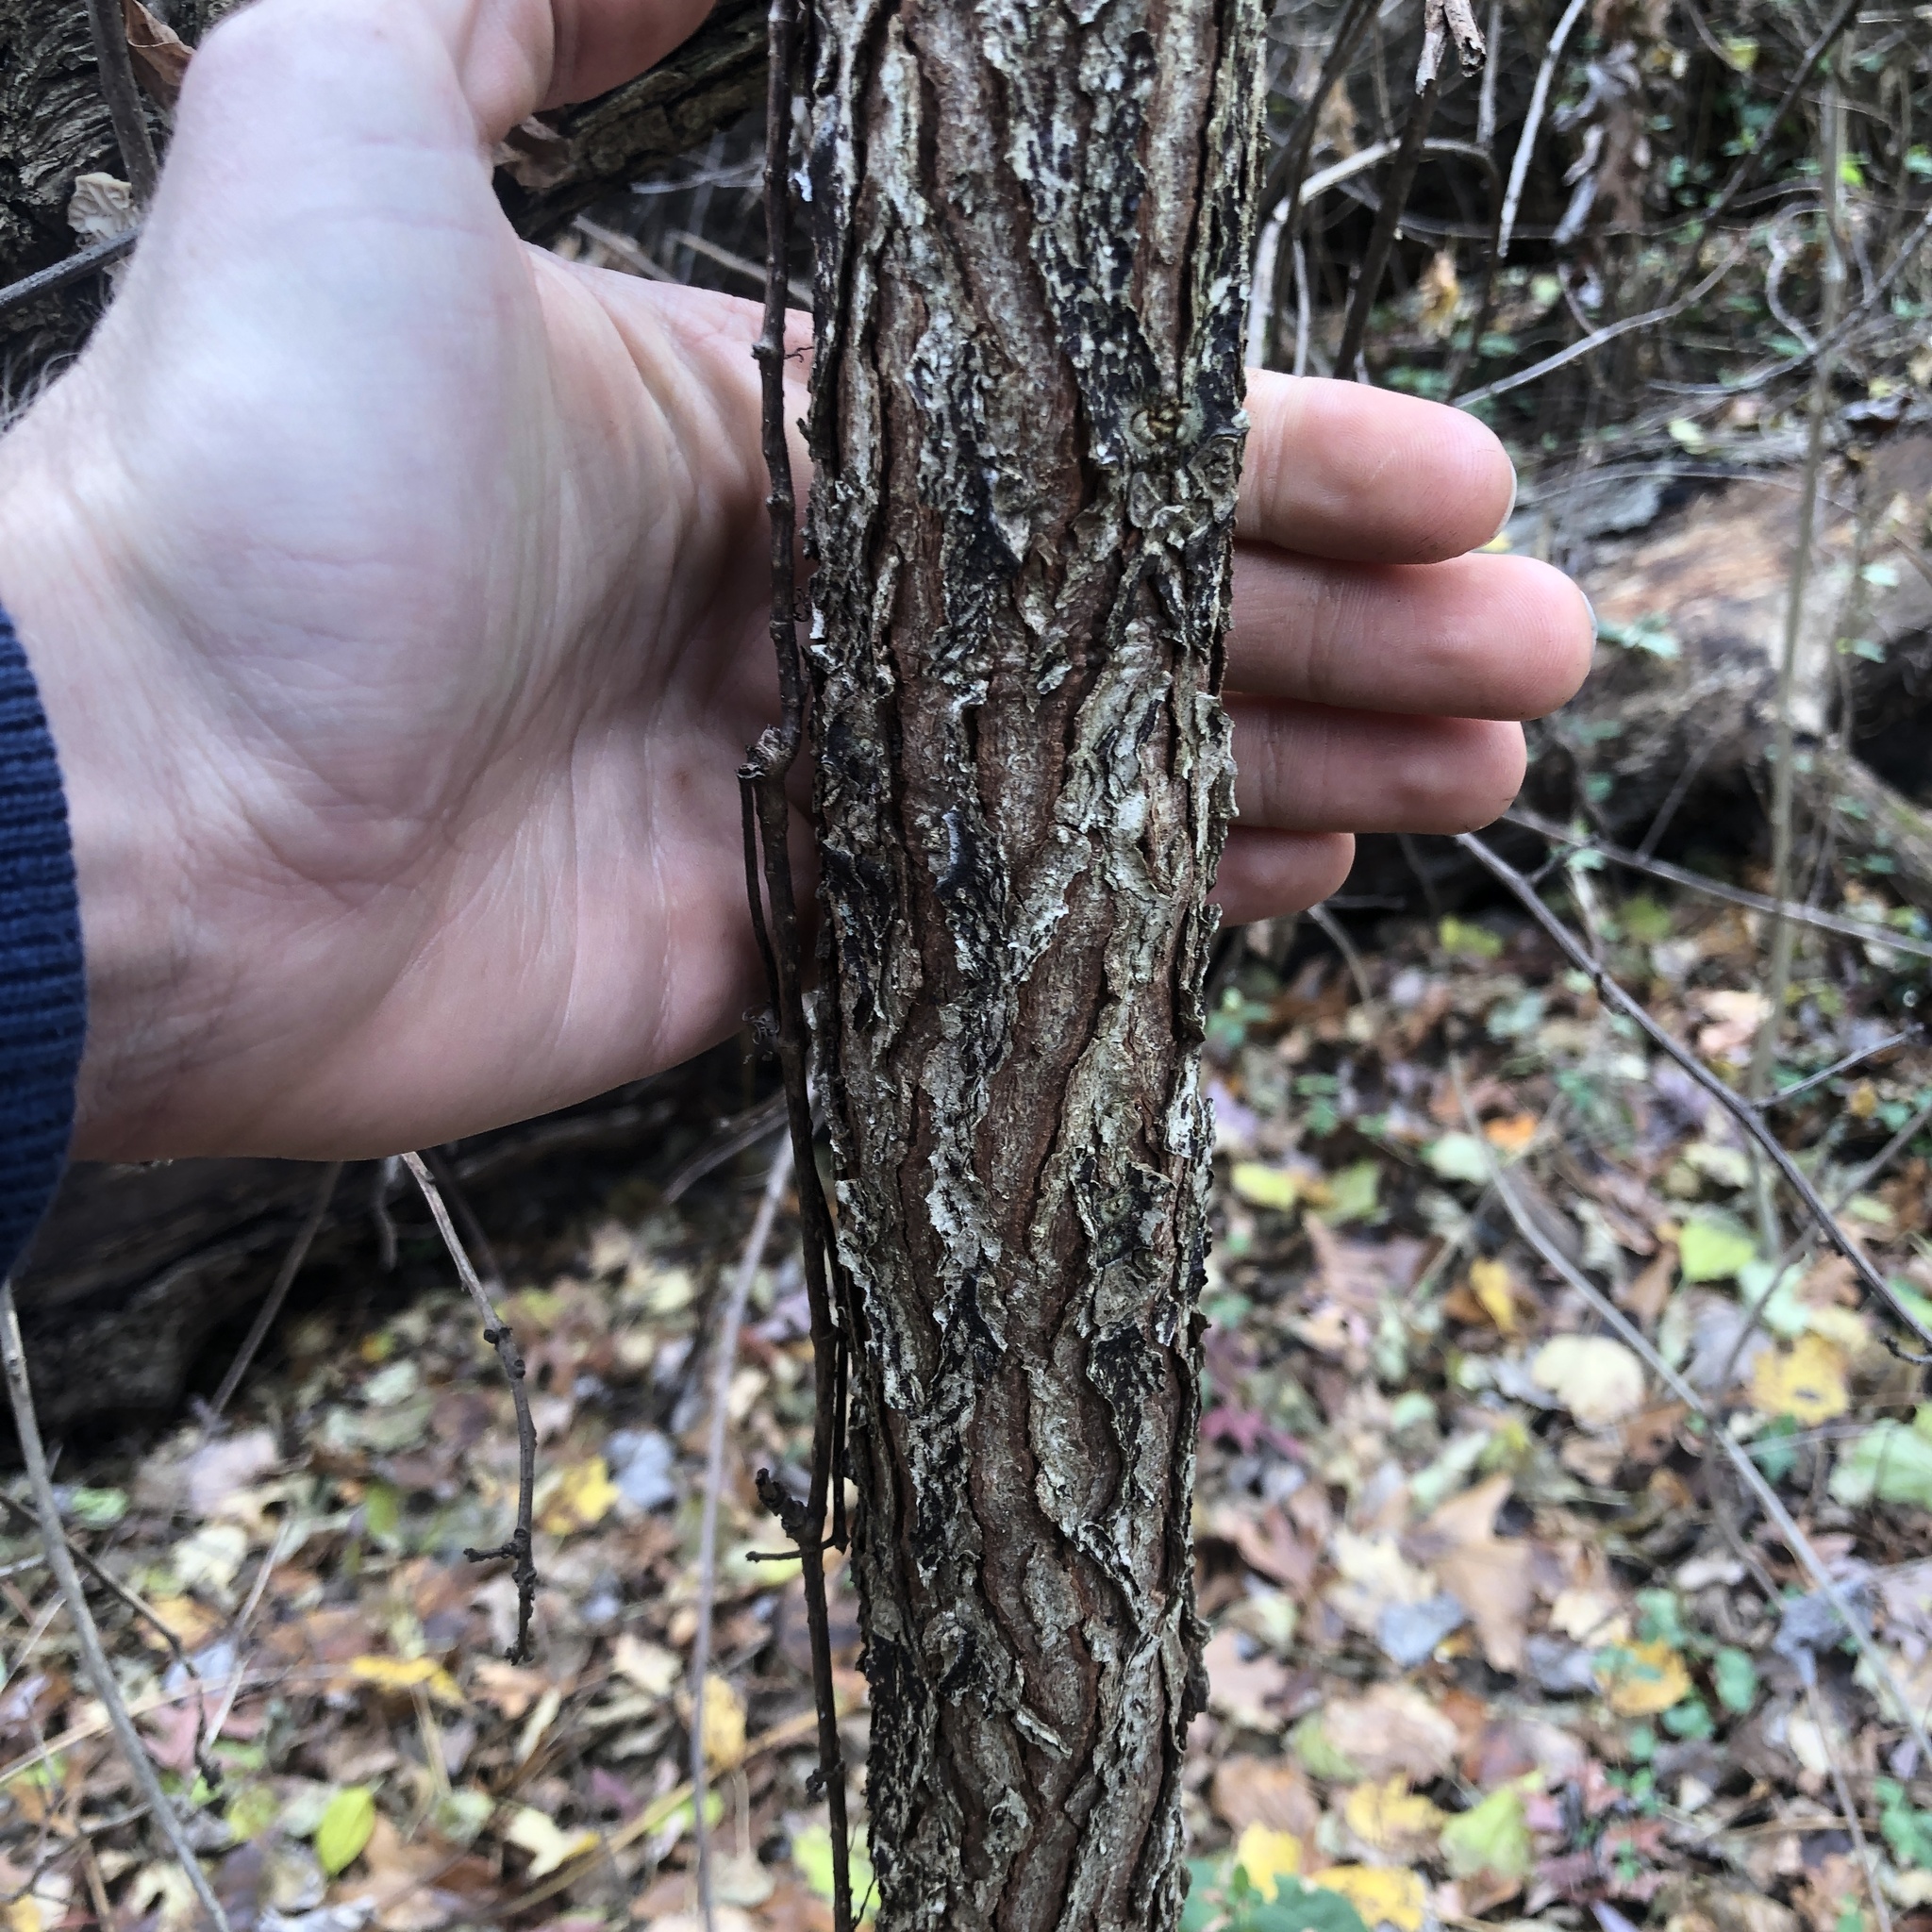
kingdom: Plantae
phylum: Tracheophyta
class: Magnoliopsida
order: Fabales
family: Fabaceae
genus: Gymnocladus
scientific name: Gymnocladus dioicus
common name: Kentucky coffee-tree
